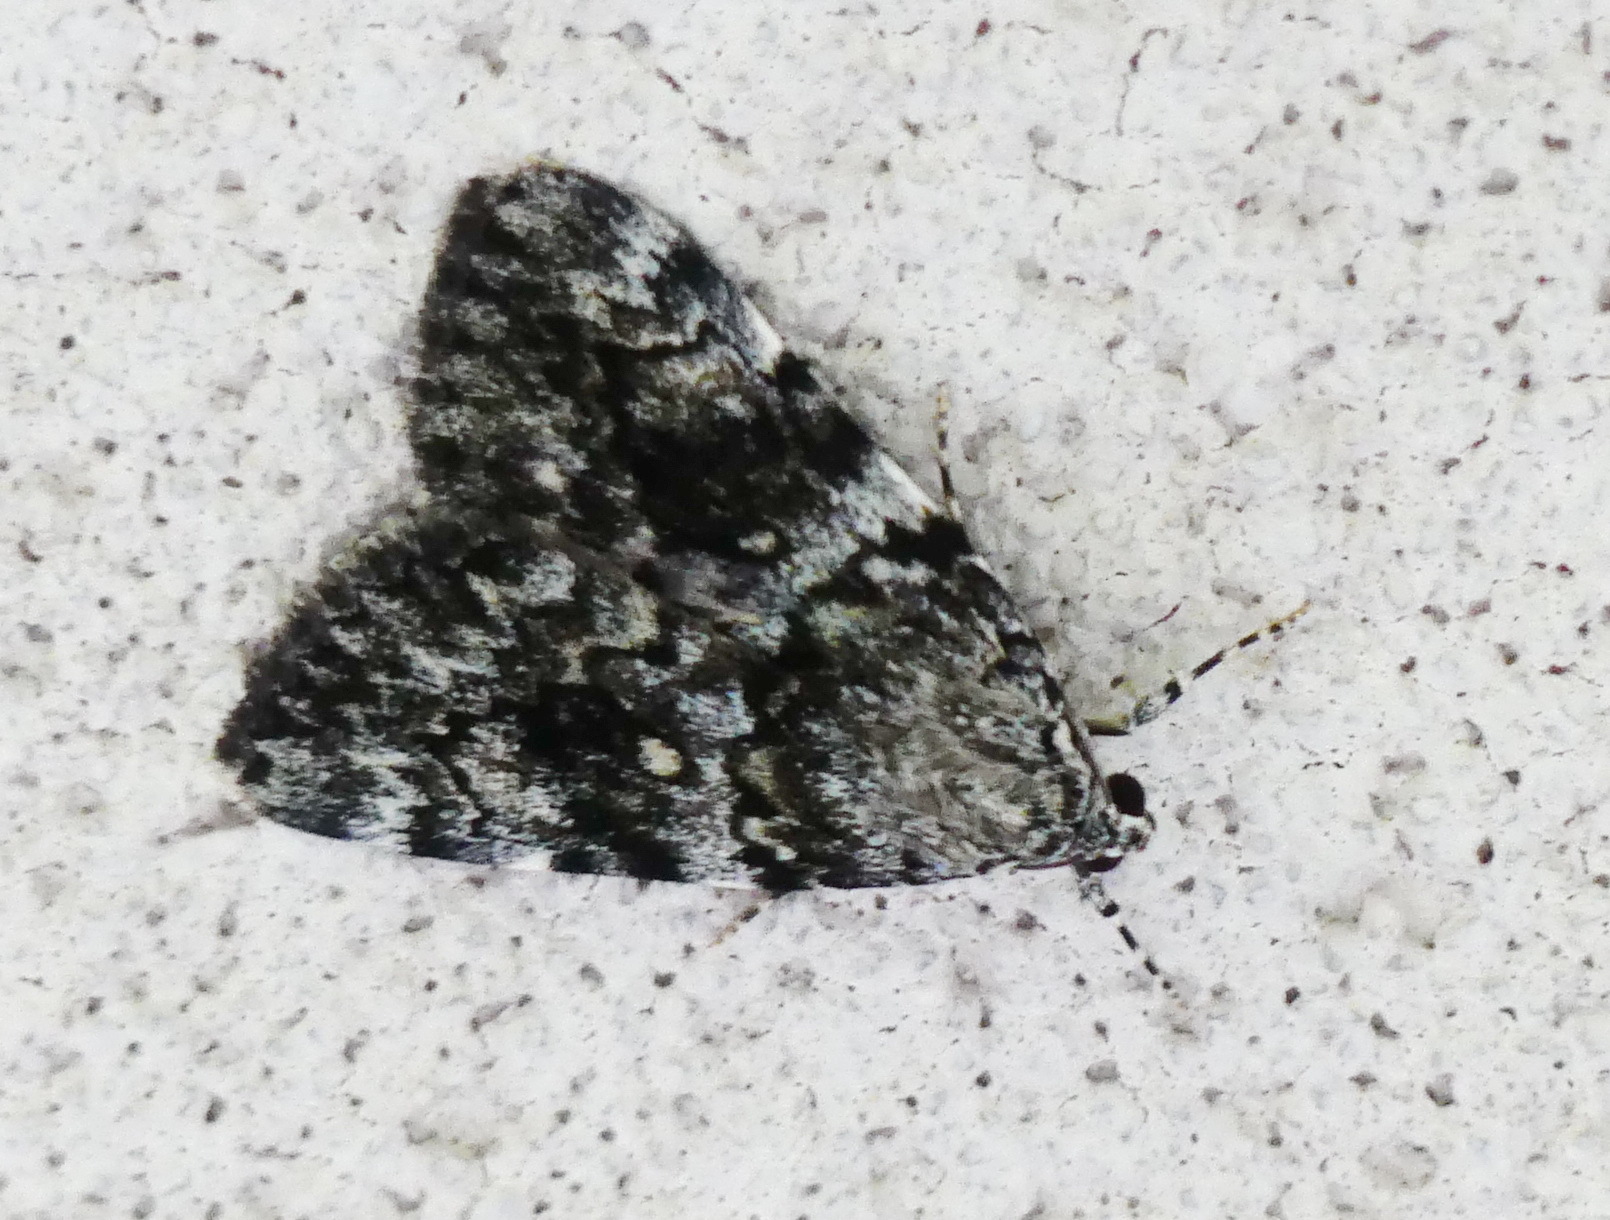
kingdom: Animalia
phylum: Arthropoda
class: Insecta
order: Lepidoptera
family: Erebidae
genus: Catocala
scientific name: Catocala lineella
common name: Little lined underwing
